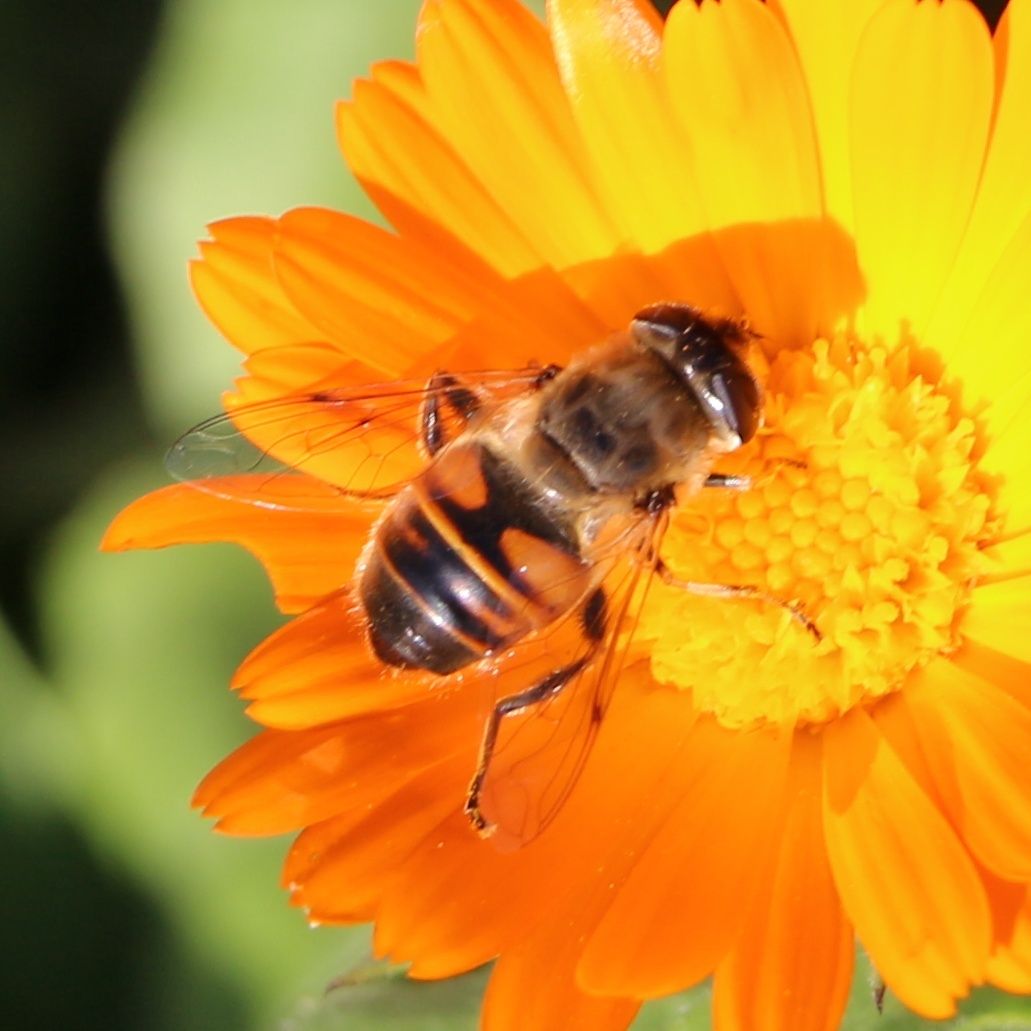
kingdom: Animalia
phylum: Arthropoda
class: Insecta
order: Diptera
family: Syrphidae
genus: Eristalis
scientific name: Eristalis tenax
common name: Drone fly
